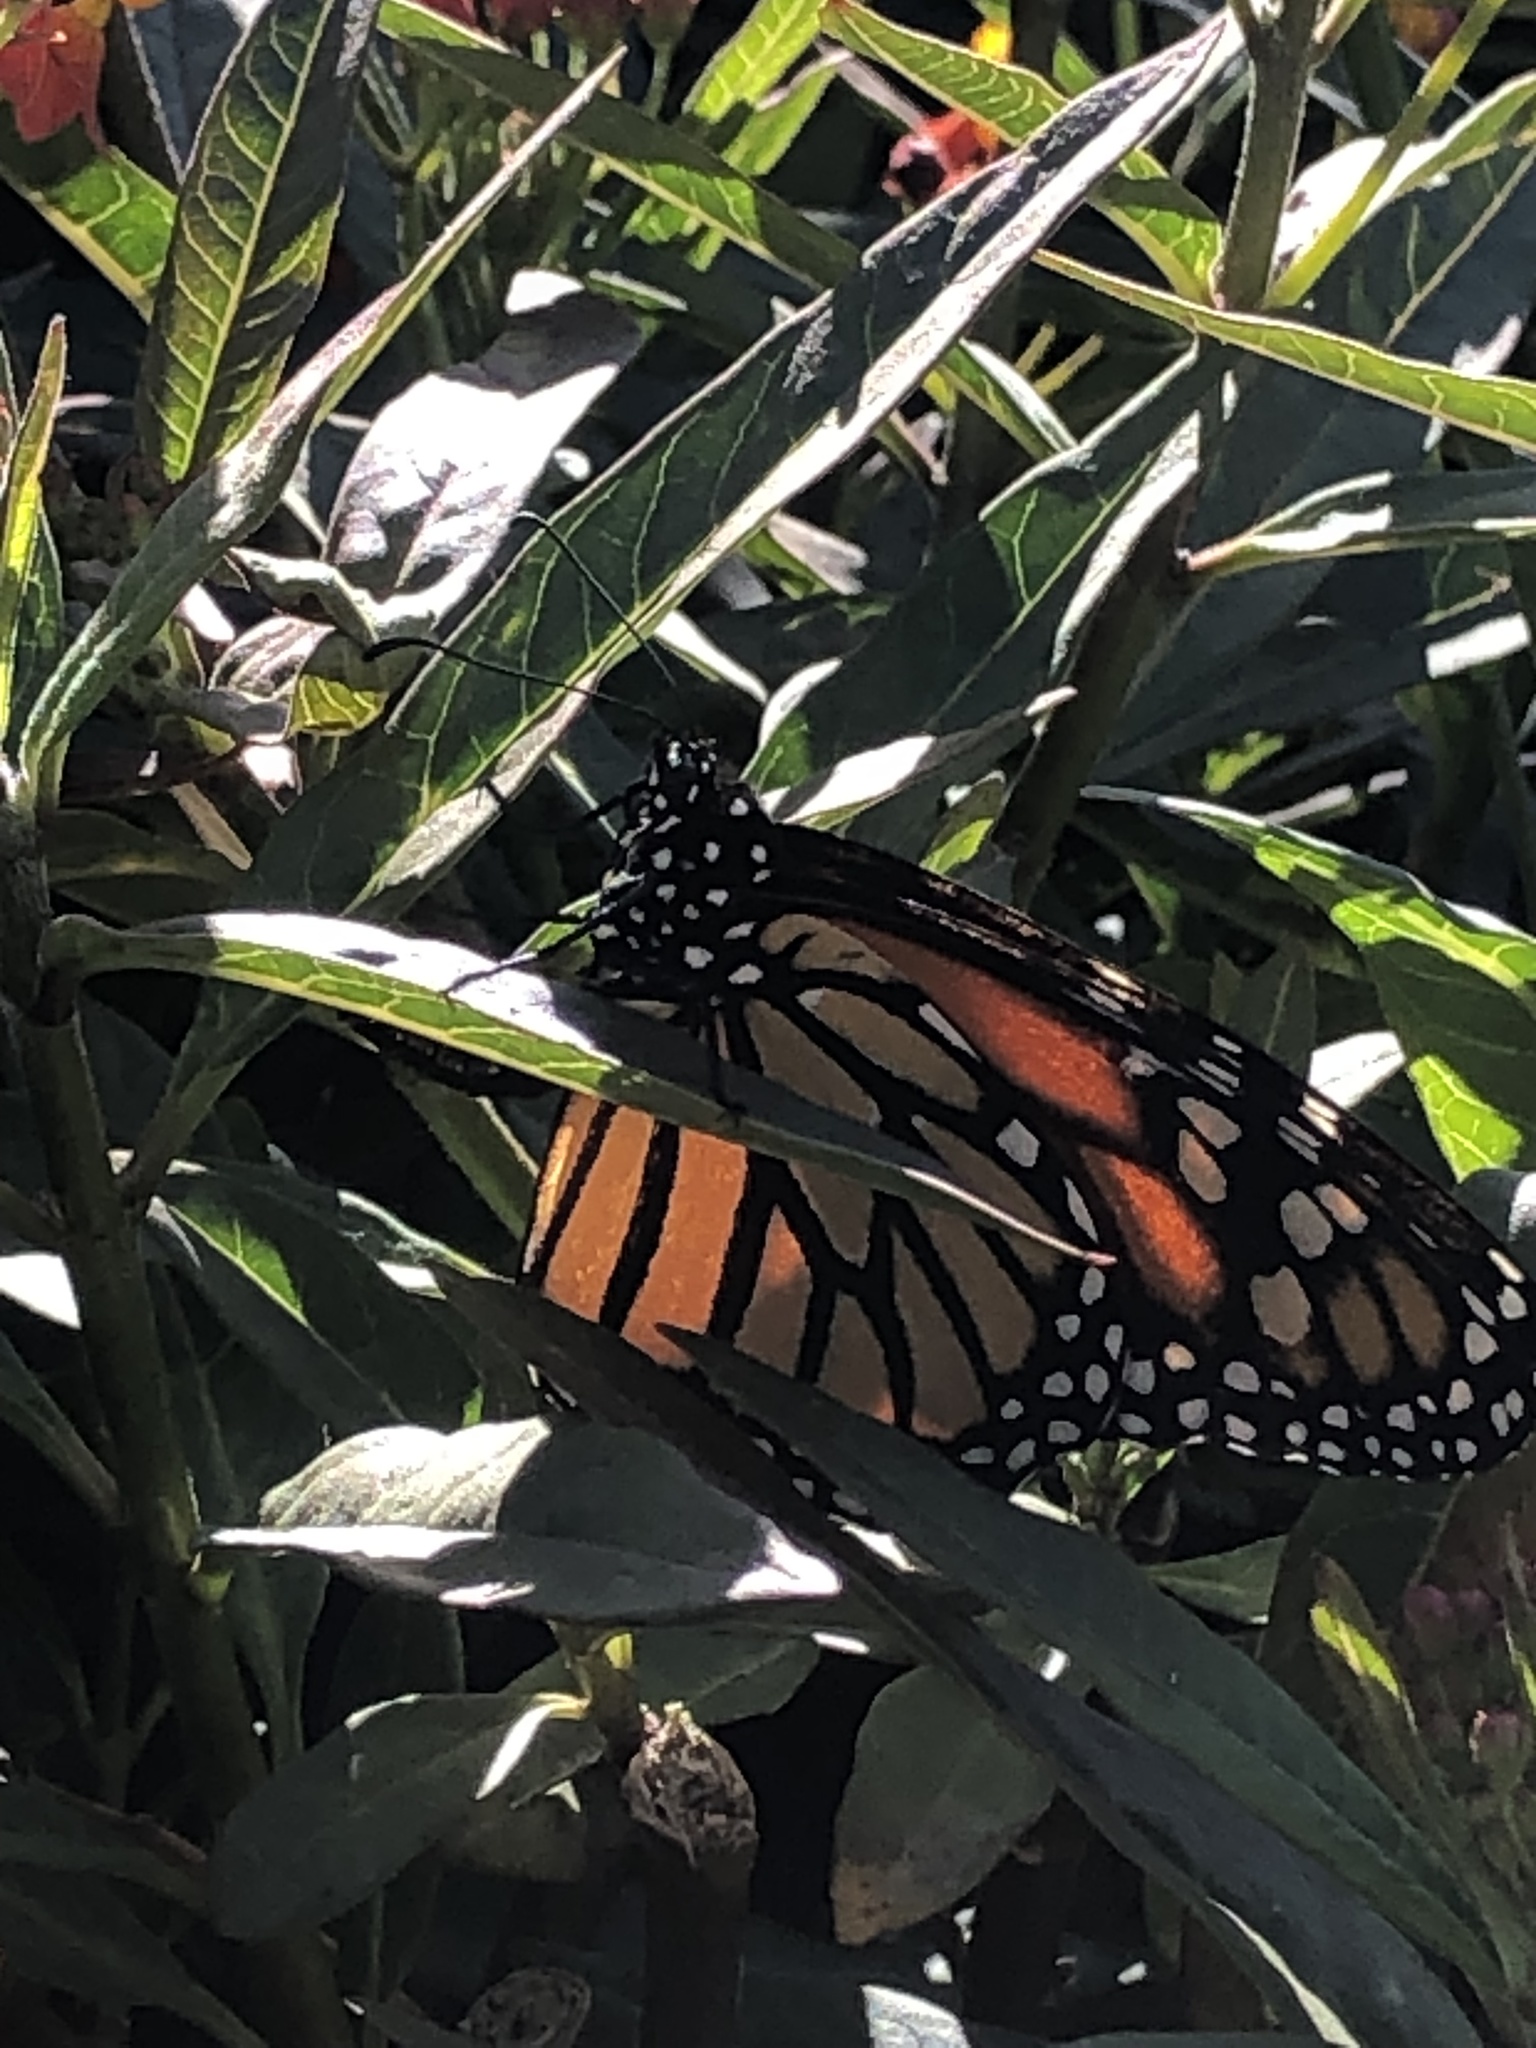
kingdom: Animalia
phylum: Arthropoda
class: Insecta
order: Lepidoptera
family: Nymphalidae
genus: Danaus
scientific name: Danaus plexippus
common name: Monarch
